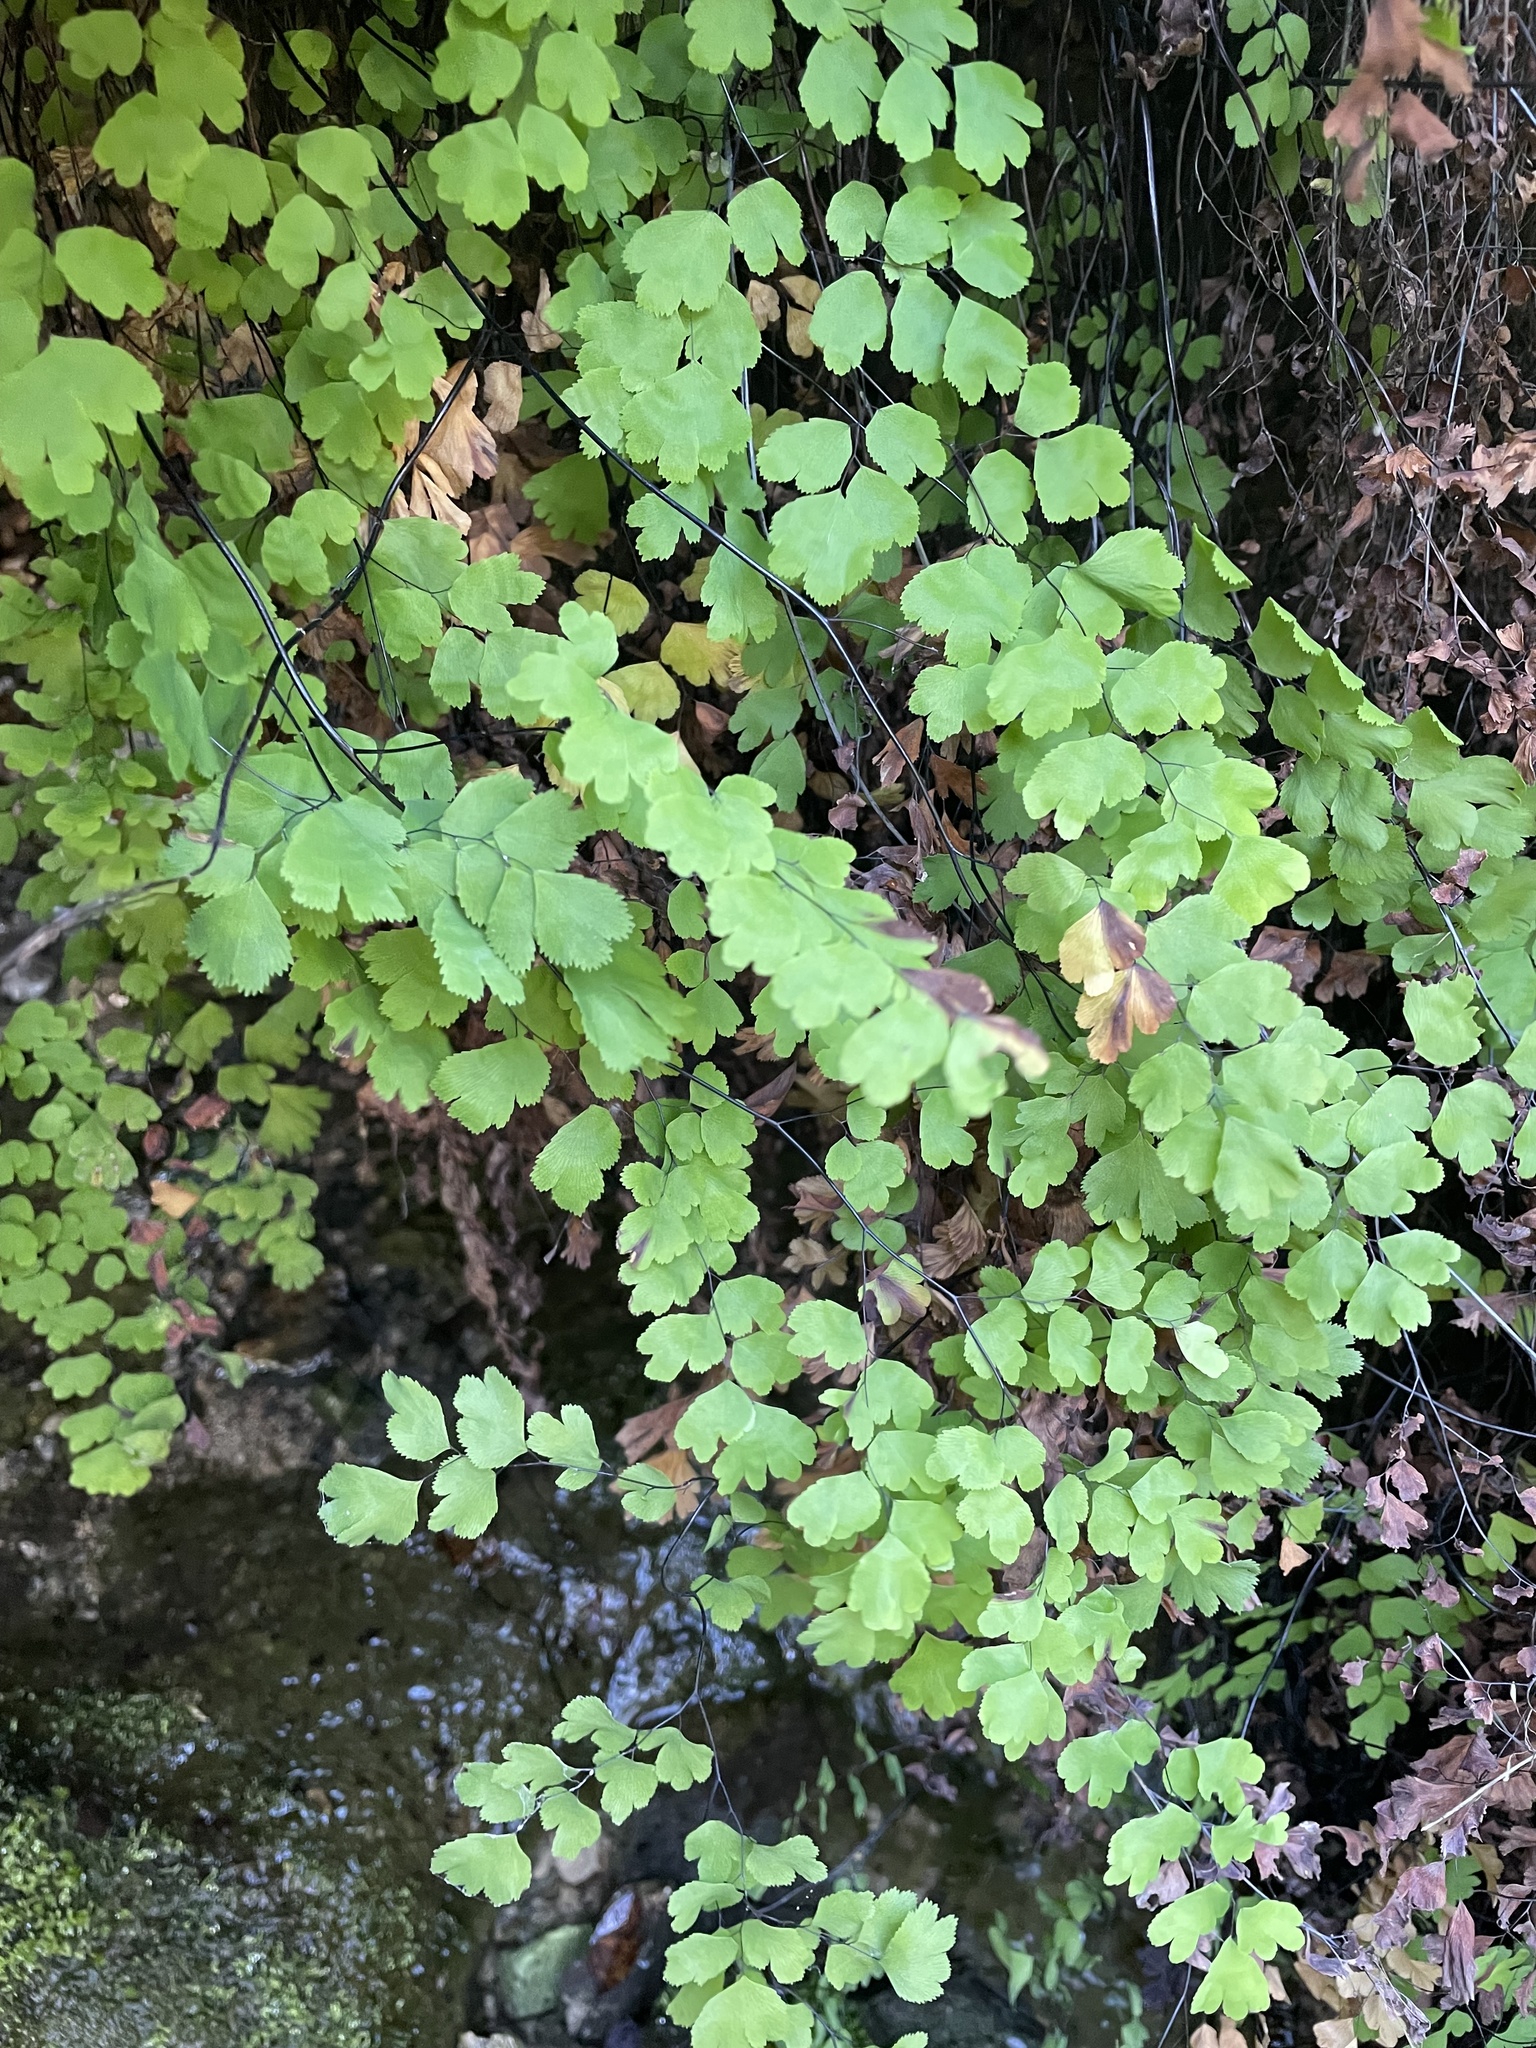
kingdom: Plantae
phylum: Tracheophyta
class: Polypodiopsida
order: Polypodiales
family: Pteridaceae
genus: Adiantum
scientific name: Adiantum capillus-veneris
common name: Maidenhair fern
